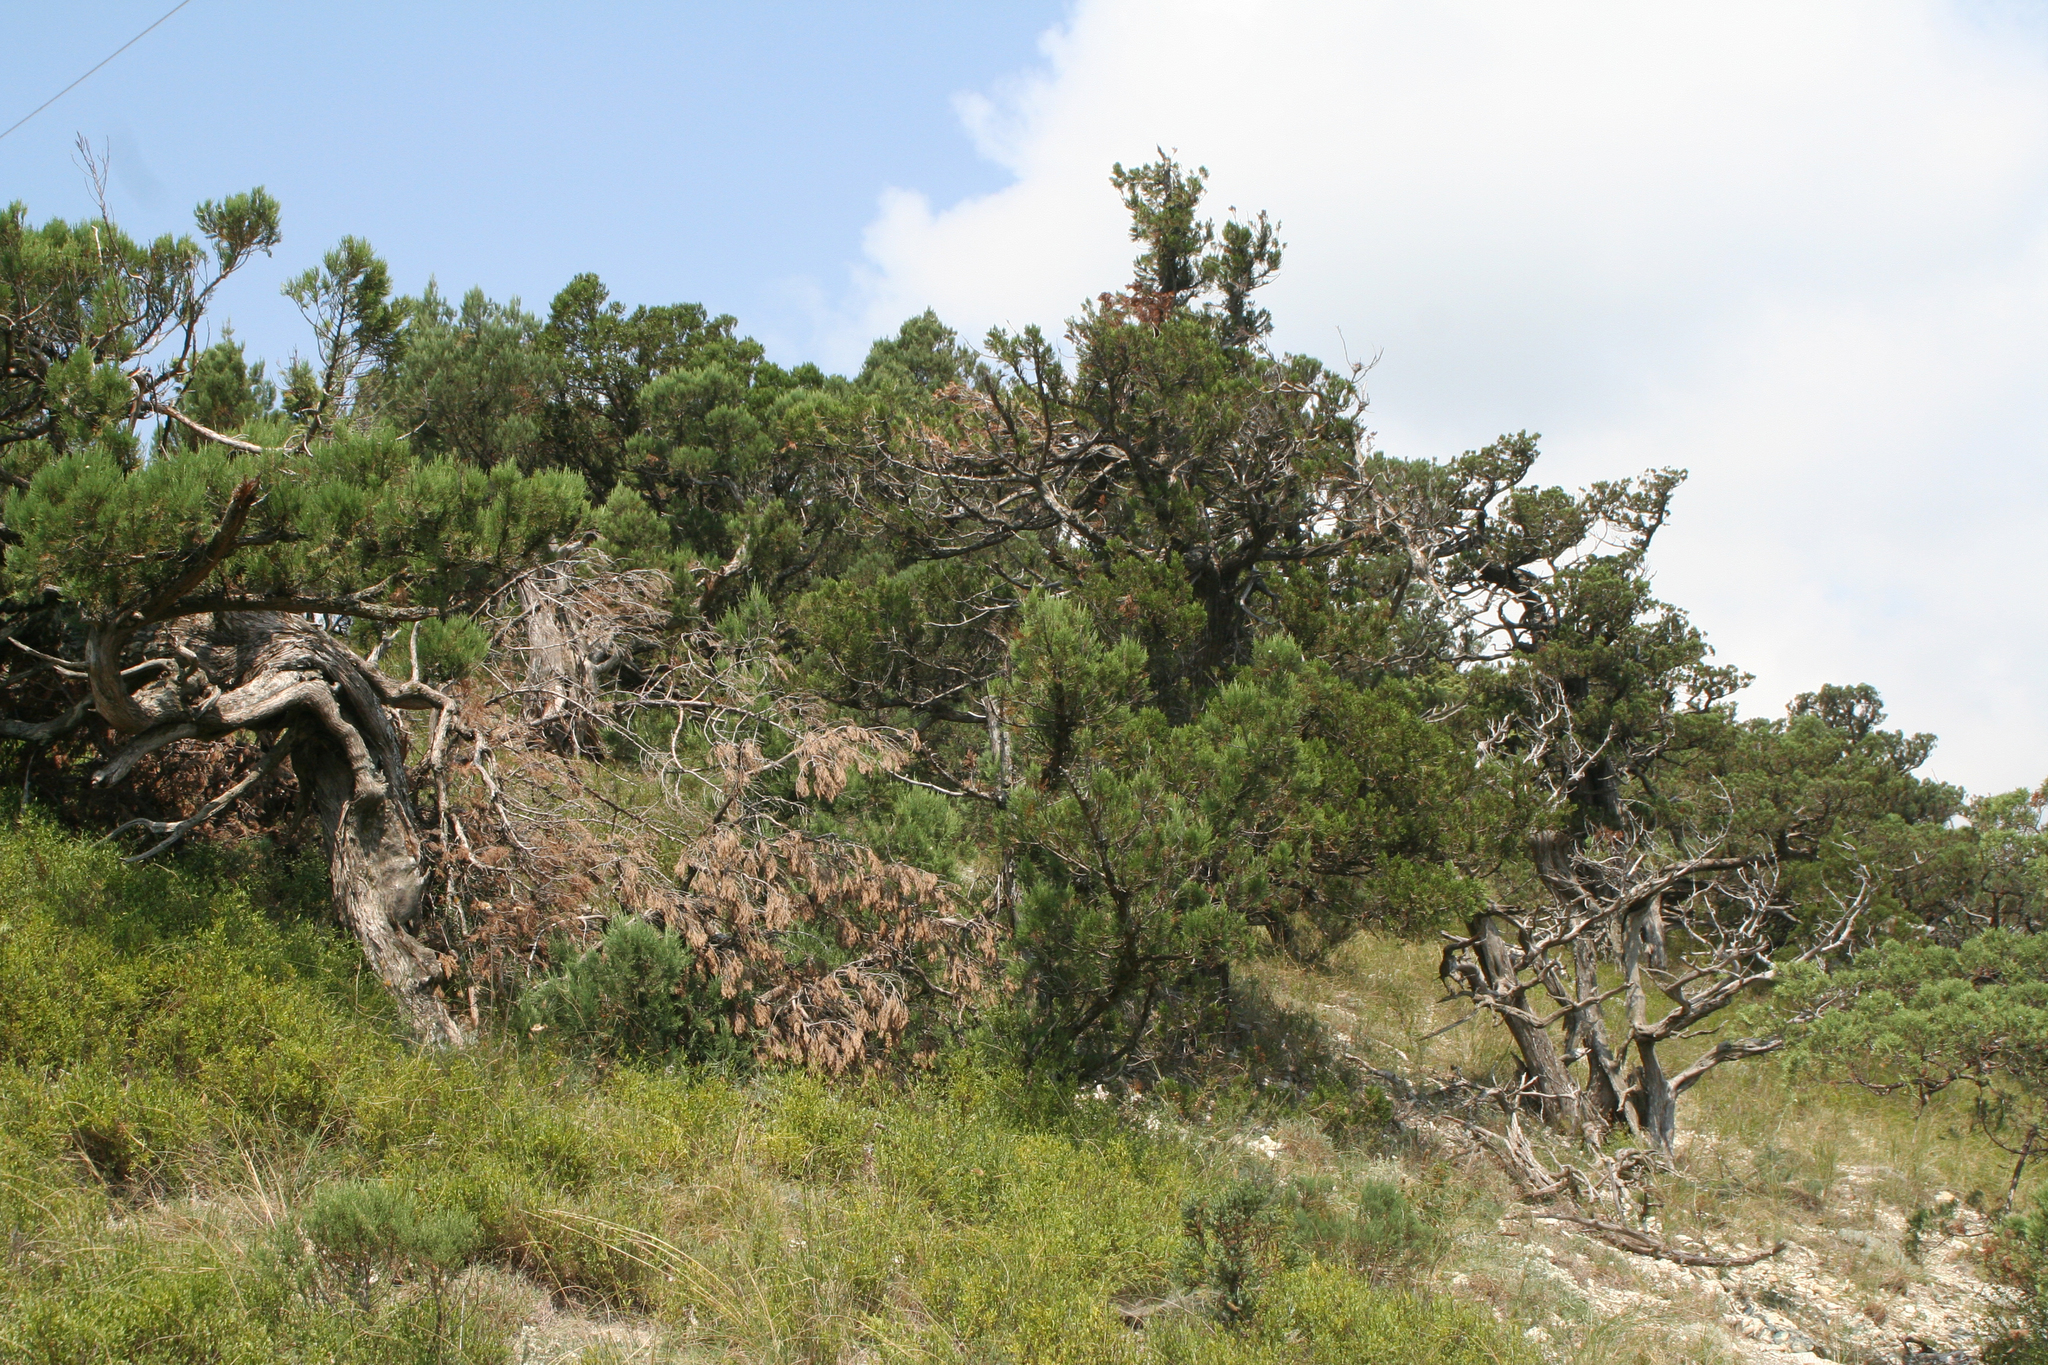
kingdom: Plantae
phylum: Tracheophyta
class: Pinopsida
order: Pinales
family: Cupressaceae
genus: Juniperus
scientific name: Juniperus excelsa
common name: Crimean juniper
